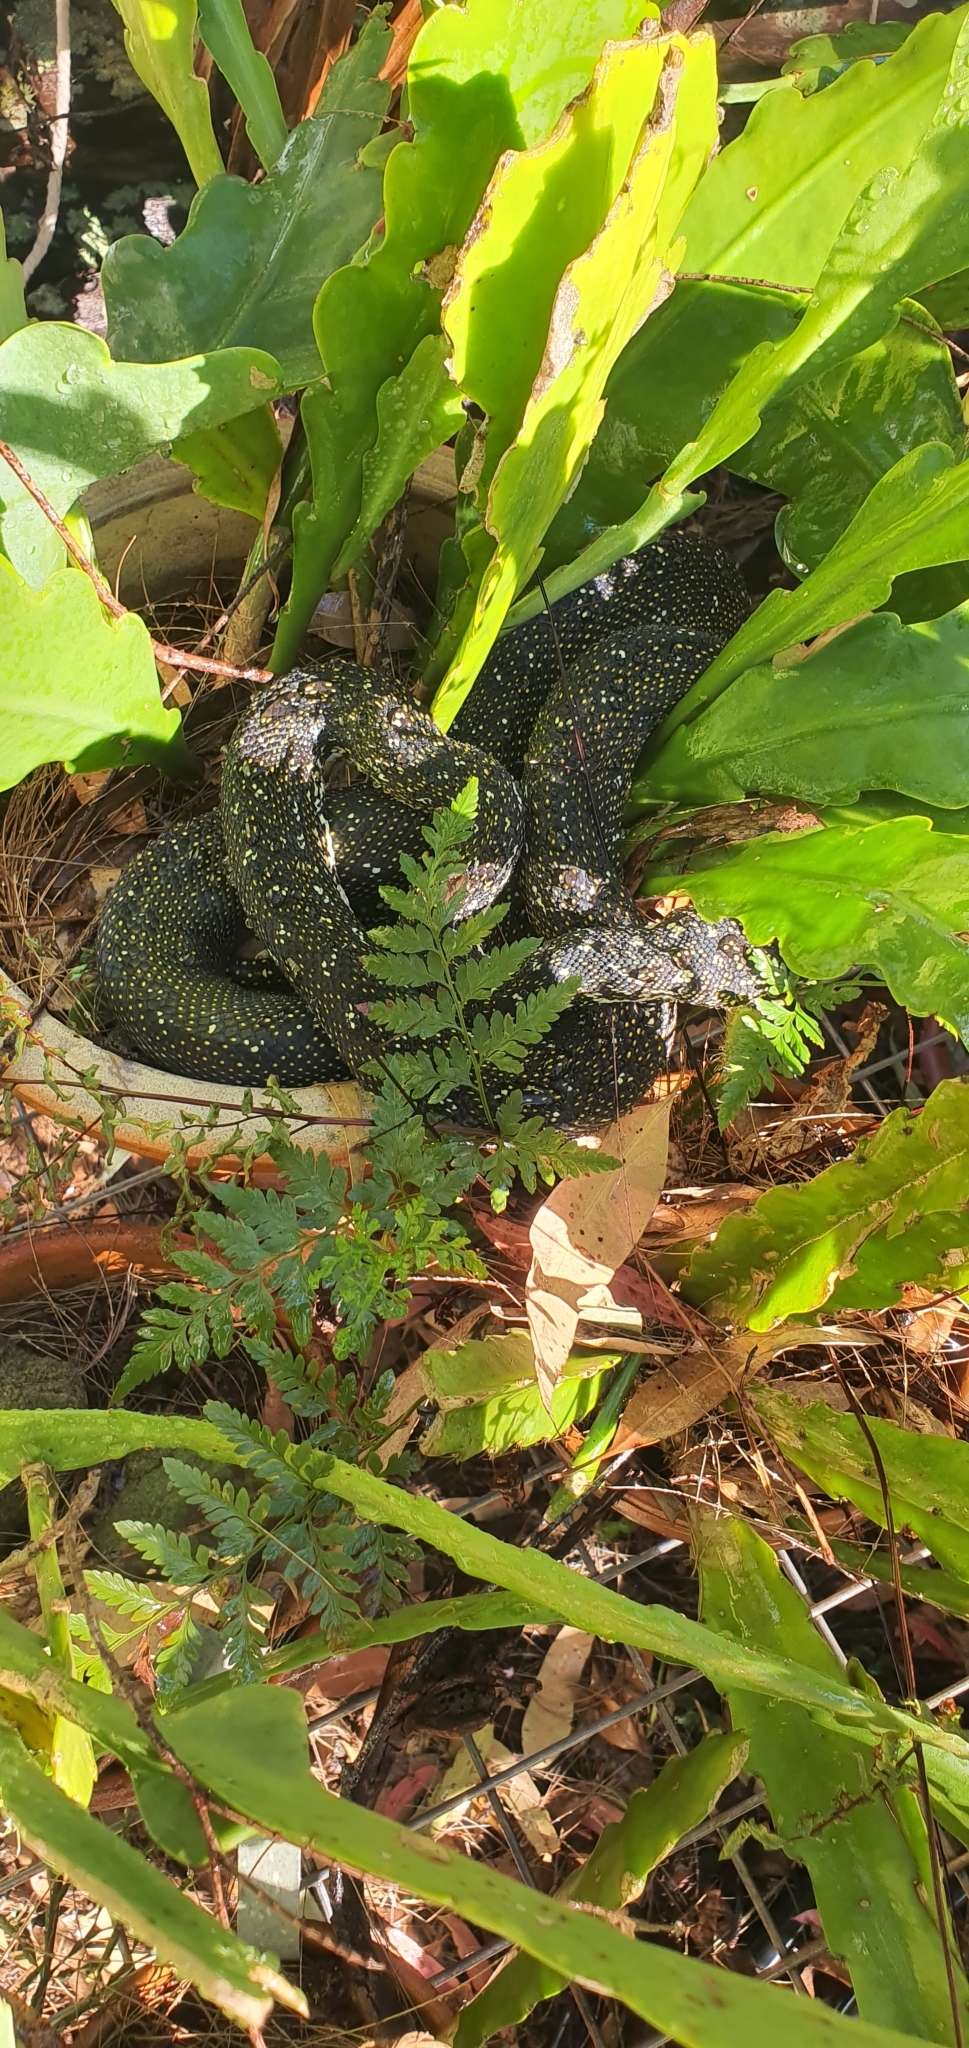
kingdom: Animalia
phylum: Chordata
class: Squamata
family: Pythonidae
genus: Morelia
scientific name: Morelia spilota
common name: Carpet python
